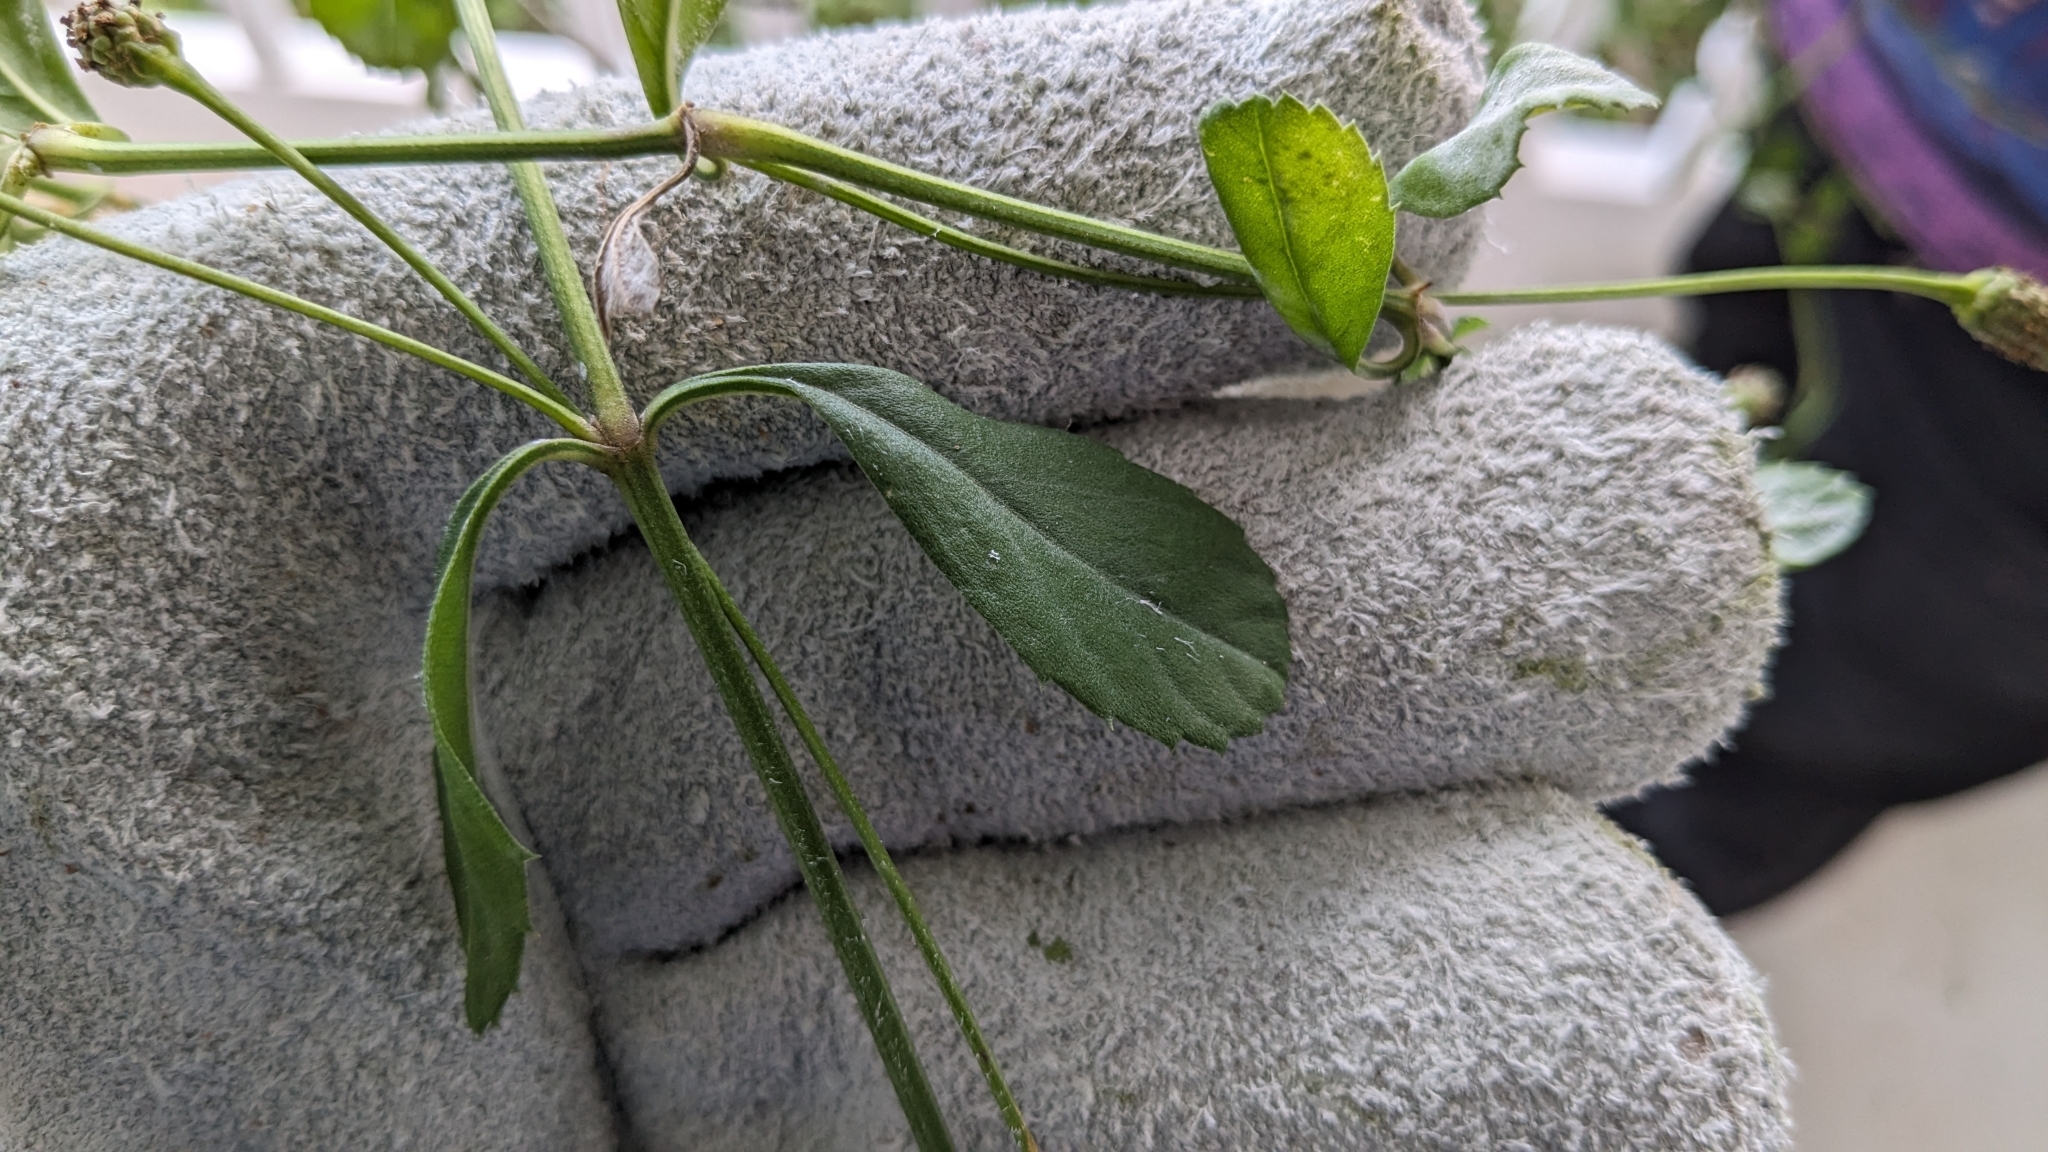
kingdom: Plantae
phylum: Tracheophyta
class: Magnoliopsida
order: Lamiales
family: Verbenaceae
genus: Phyla
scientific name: Phyla nodiflora
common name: Frogfruit
